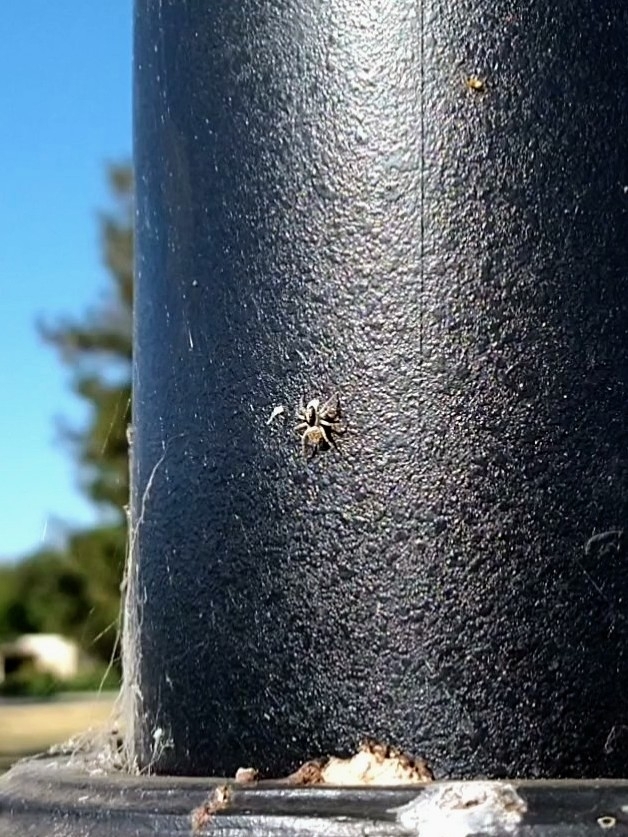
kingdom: Animalia
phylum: Arthropoda
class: Arachnida
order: Araneae
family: Salticidae
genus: Menemerus
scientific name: Menemerus semilimbatus
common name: Jumping spider
